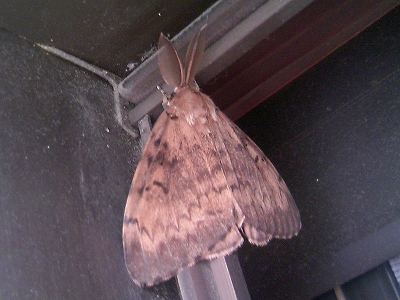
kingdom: Animalia
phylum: Arthropoda
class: Insecta
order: Lepidoptera
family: Erebidae
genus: Lymantria
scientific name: Lymantria dispar
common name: Gypsy moth
